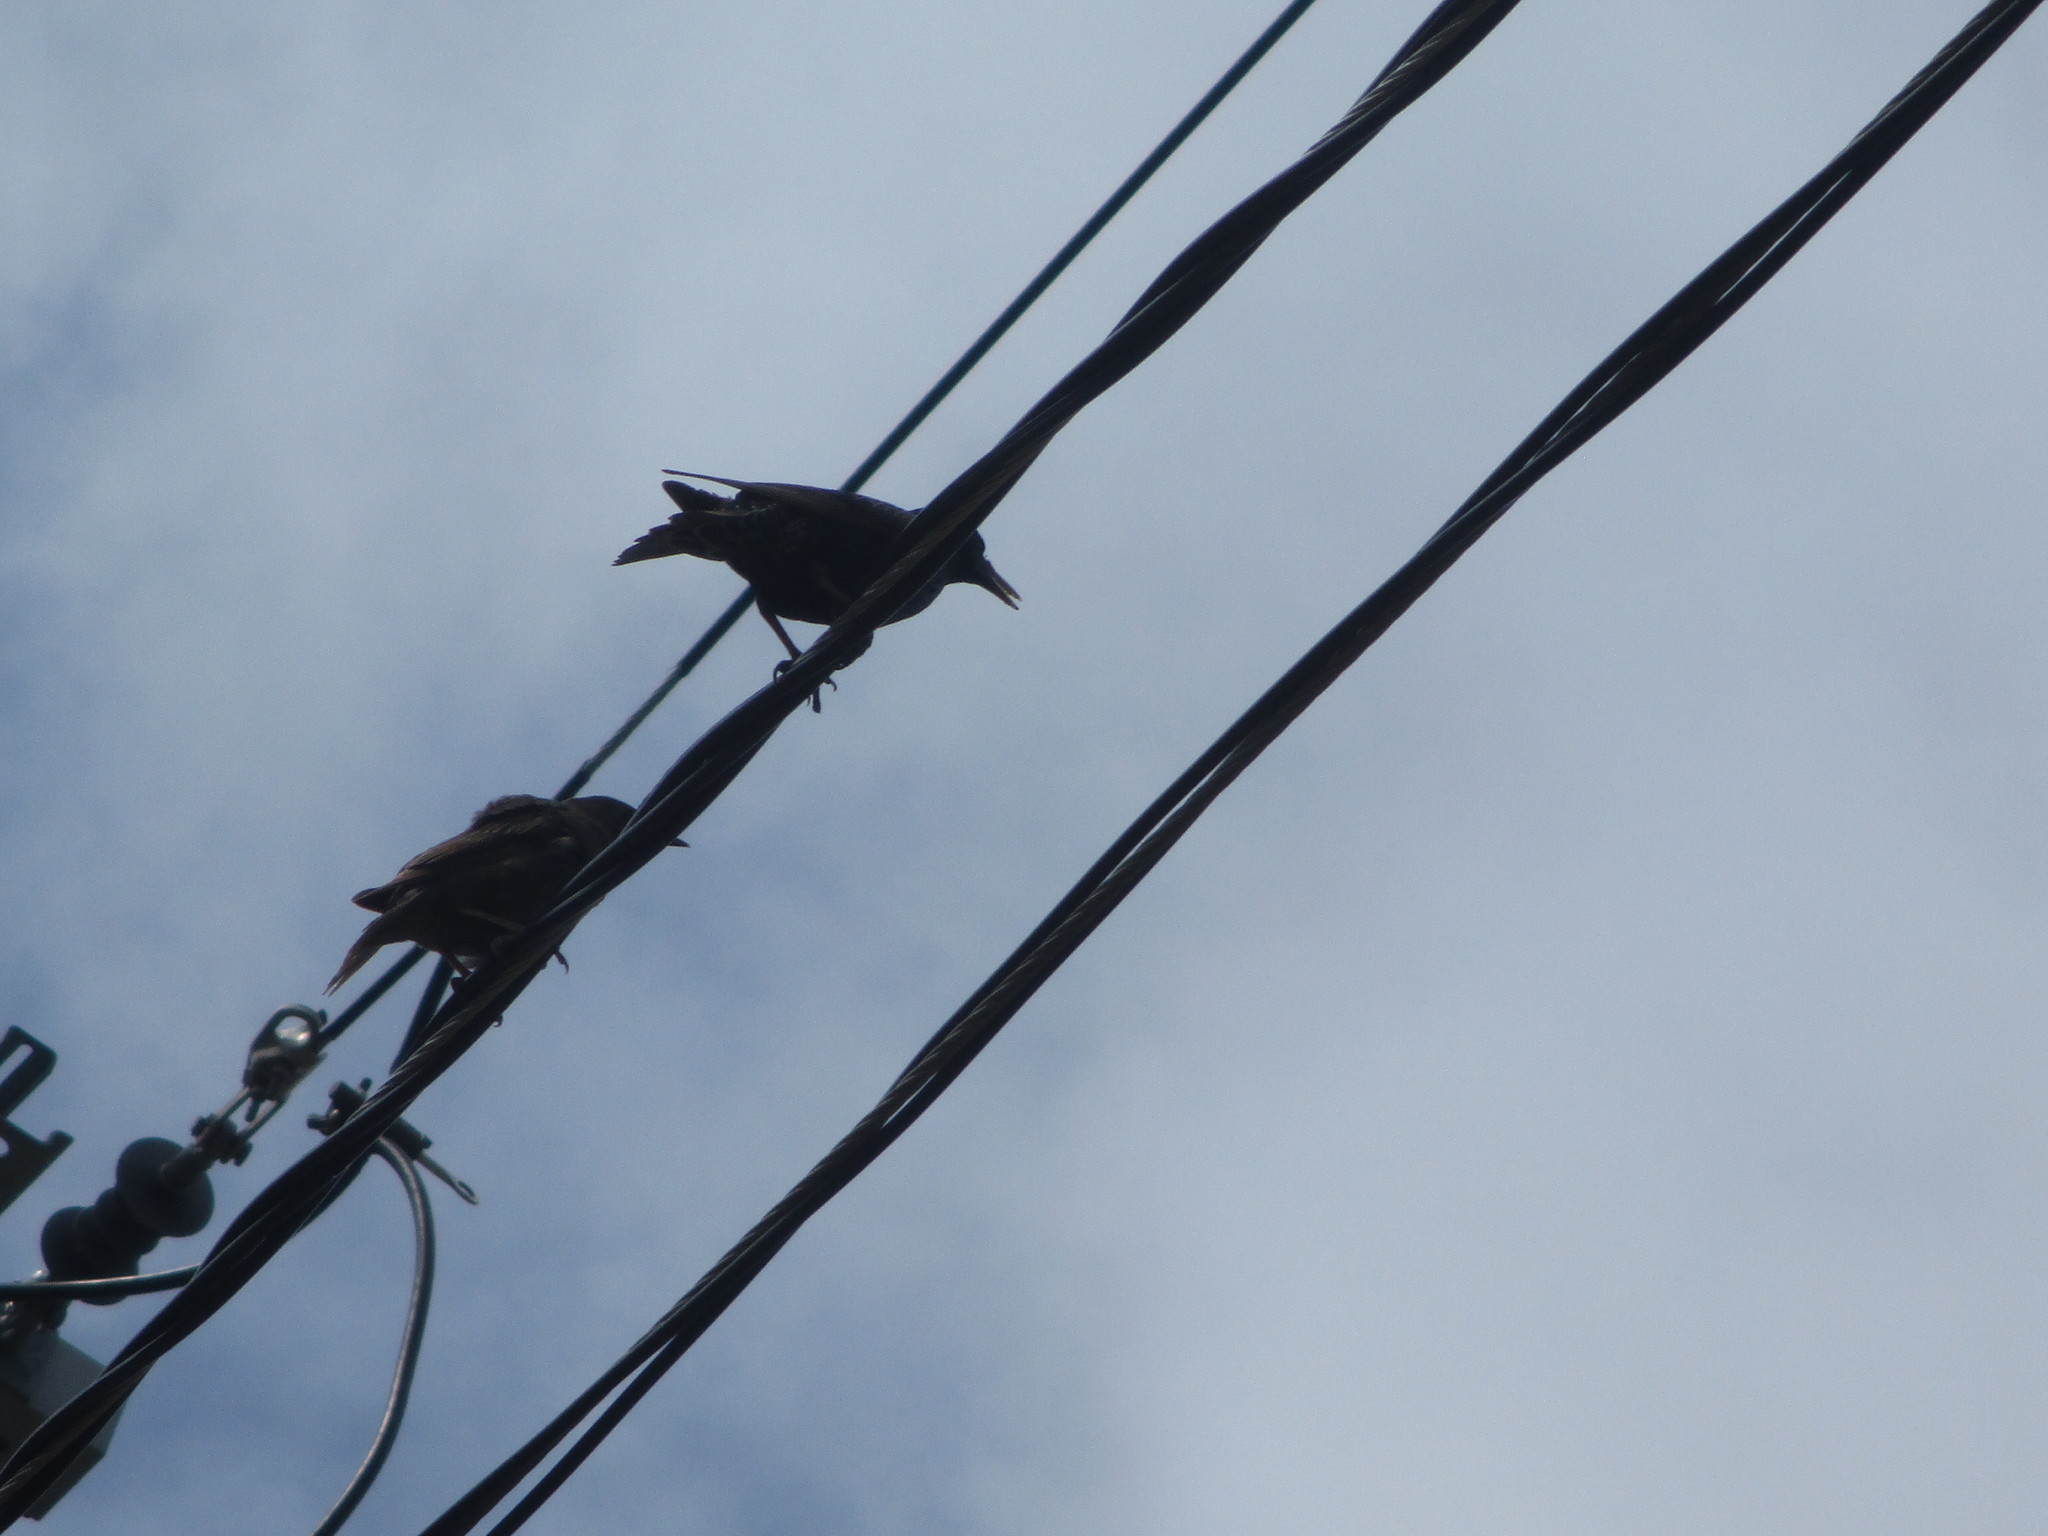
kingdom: Animalia
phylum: Chordata
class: Aves
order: Passeriformes
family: Sturnidae
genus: Sturnus
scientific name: Sturnus vulgaris
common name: Common starling
